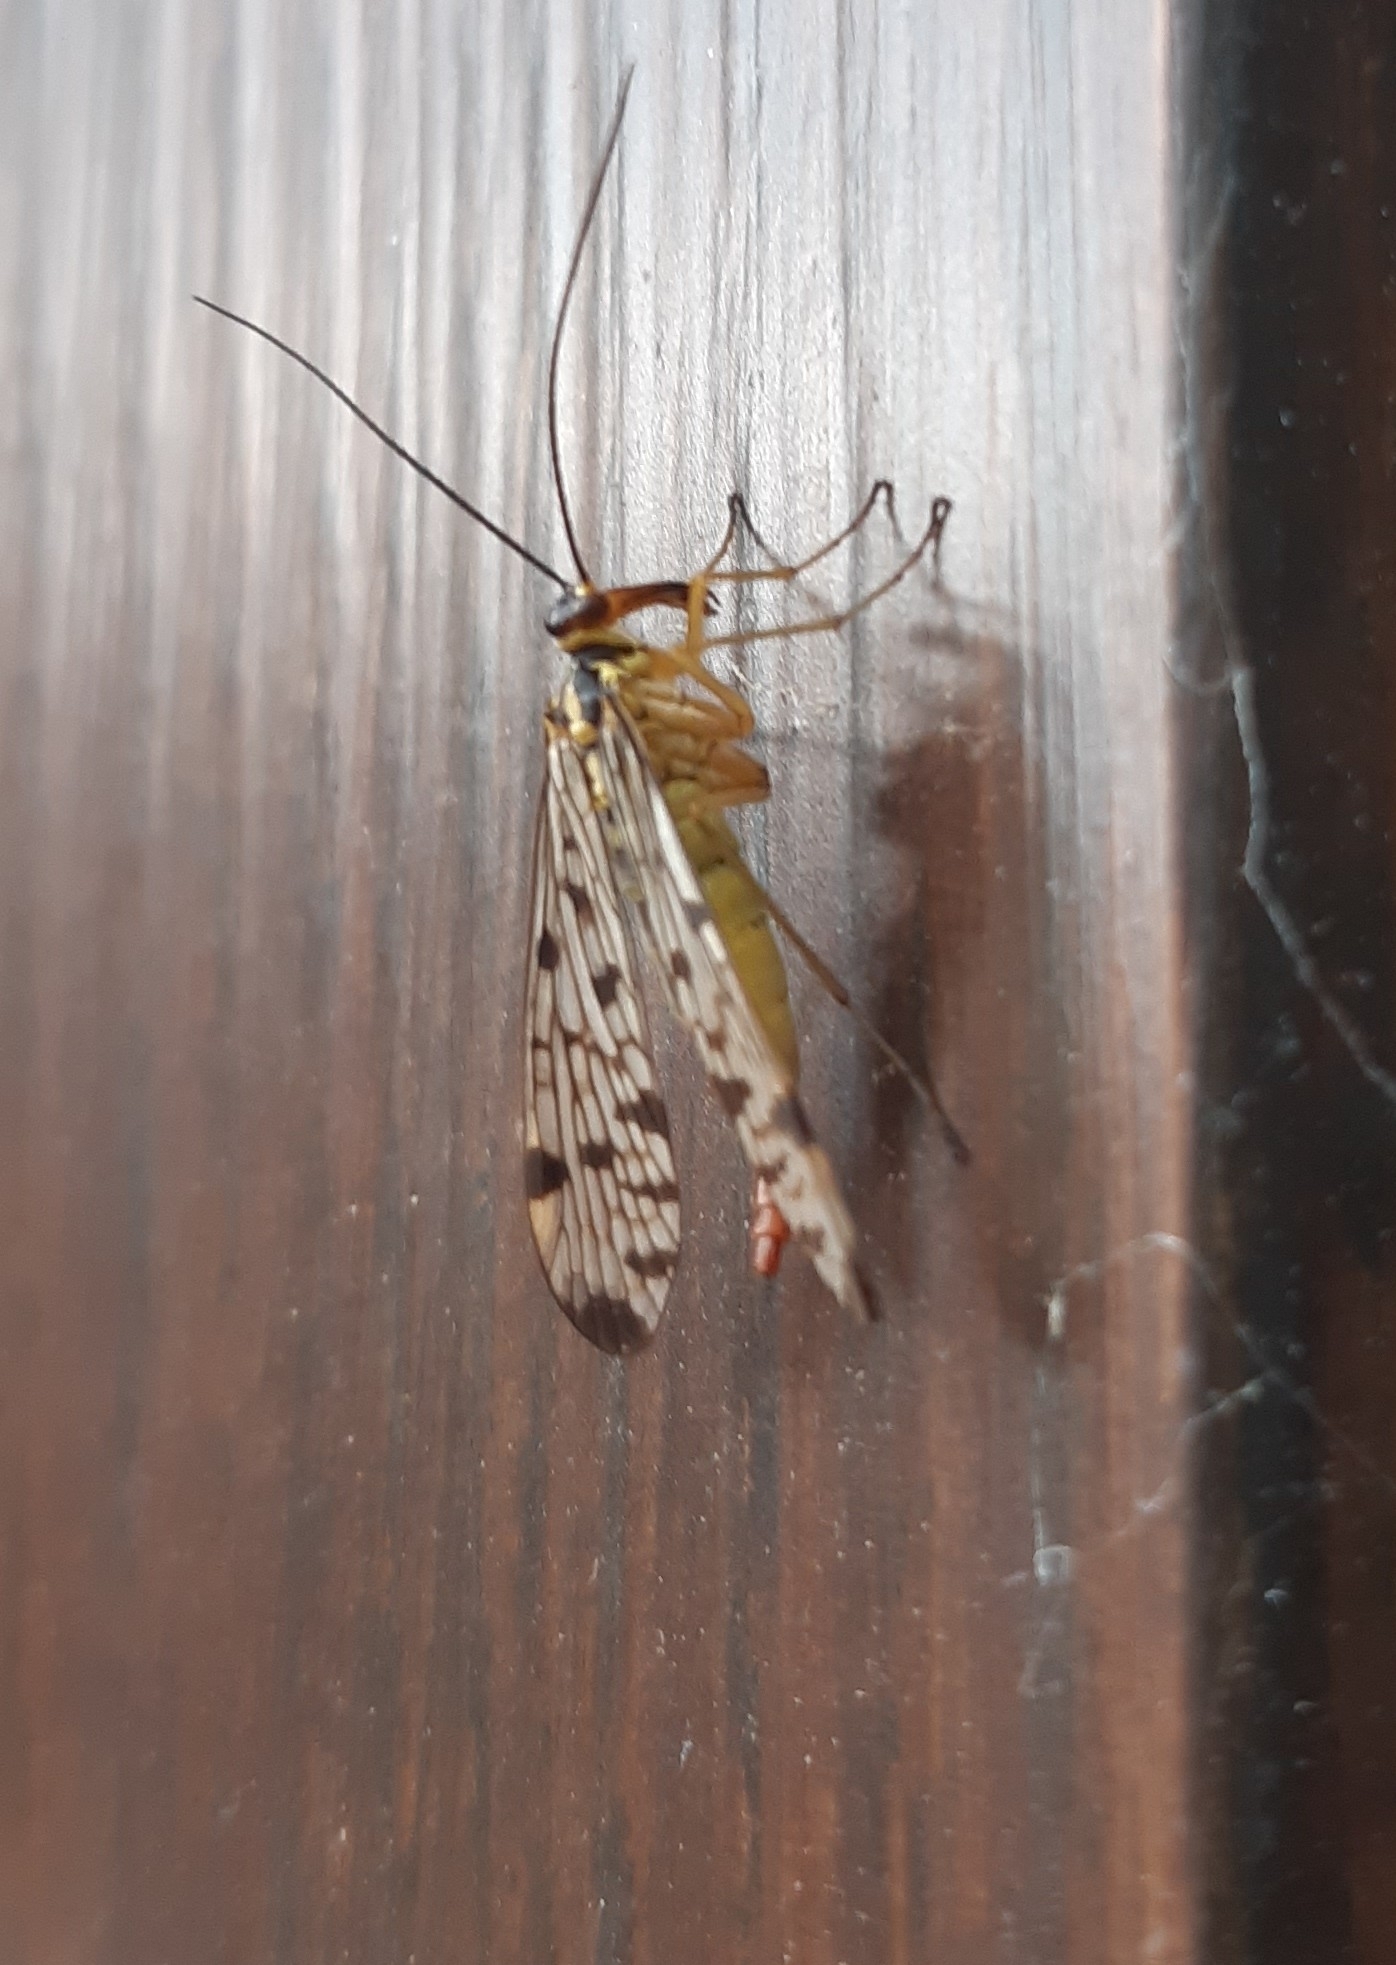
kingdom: Animalia
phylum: Arthropoda
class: Insecta
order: Mecoptera
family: Panorpidae
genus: Panorpa
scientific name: Panorpa germanica
